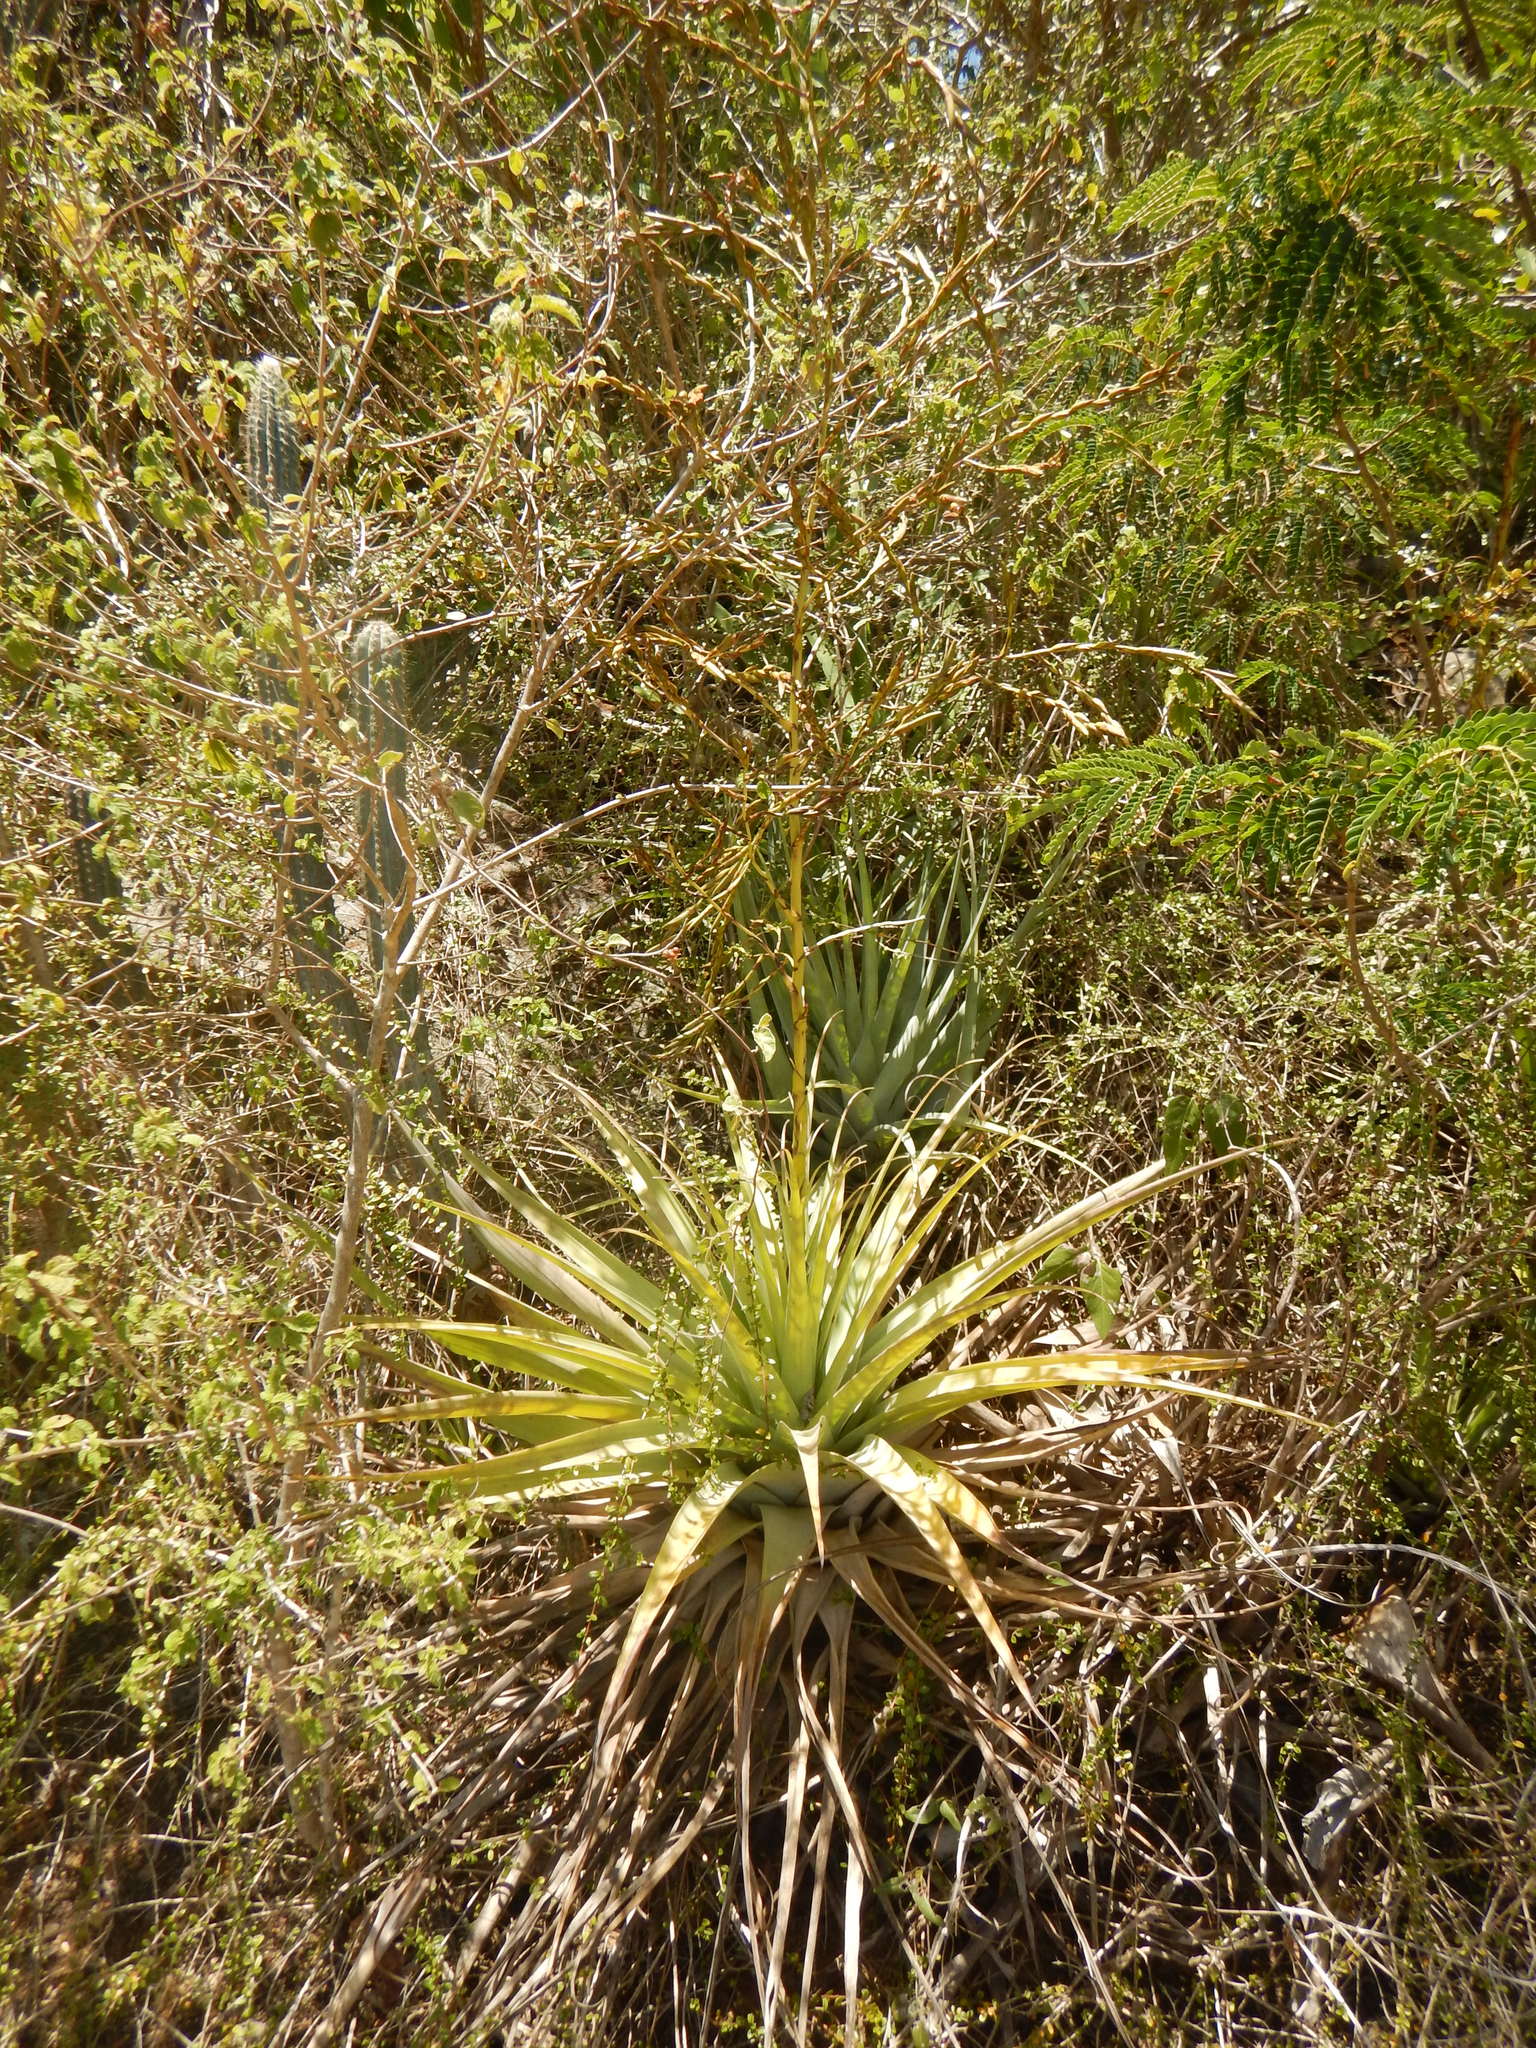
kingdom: Plantae
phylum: Tracheophyta
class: Liliopsida
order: Poales
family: Bromeliaceae
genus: Tillandsia
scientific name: Tillandsia utriculata
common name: Wild pine
